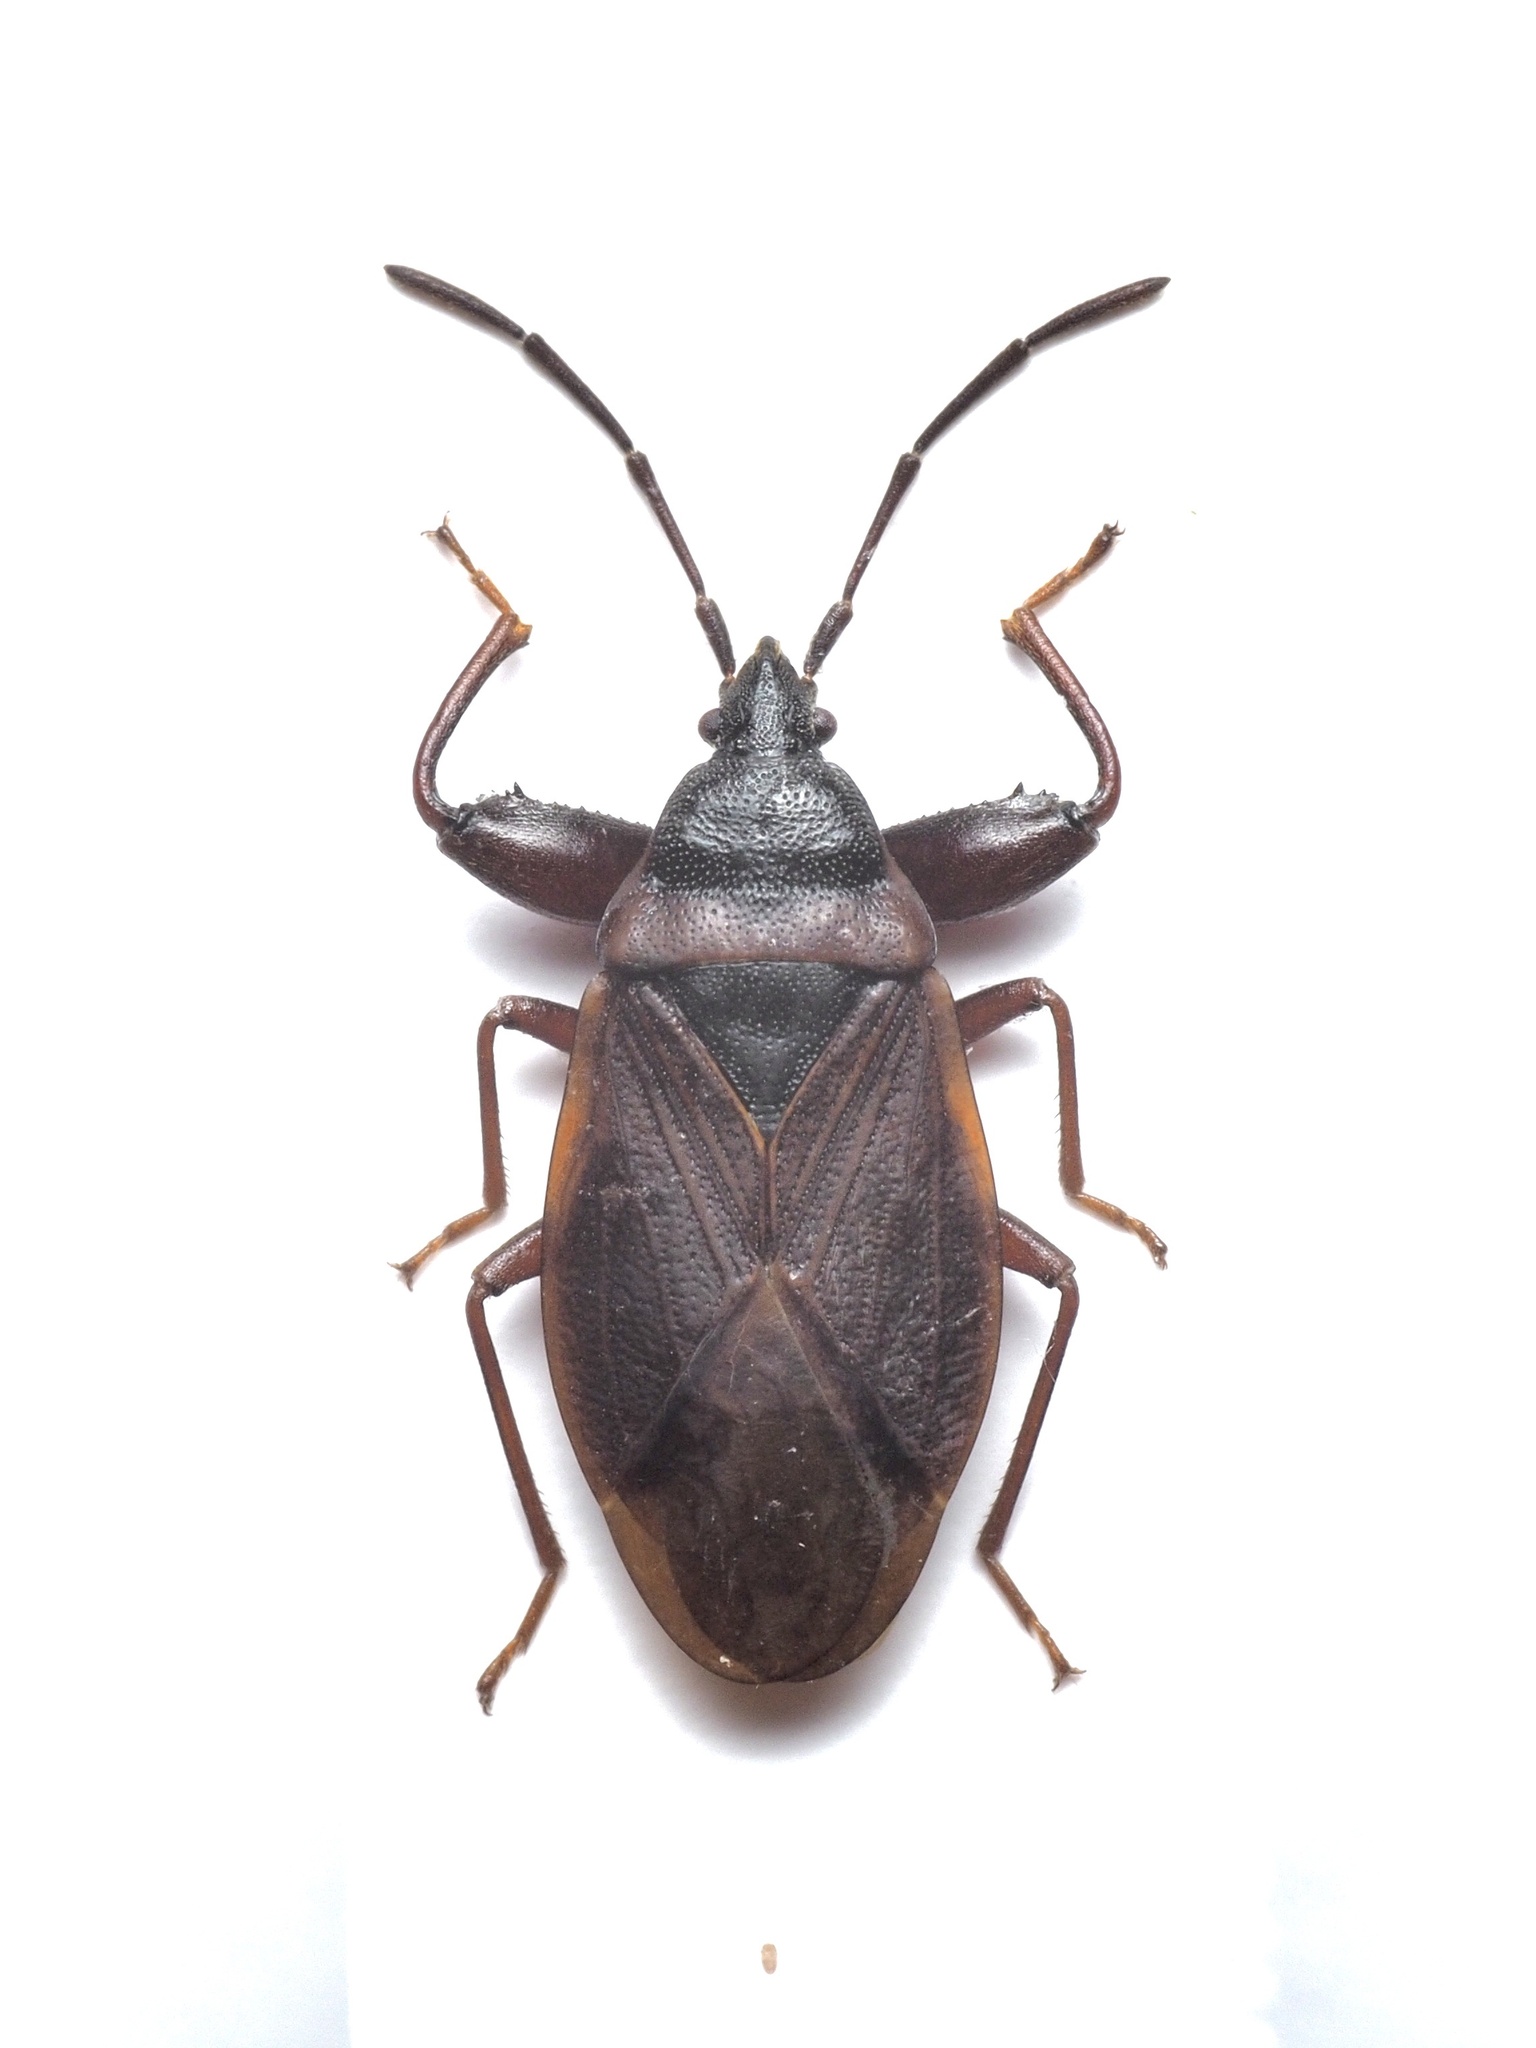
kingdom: Animalia
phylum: Arthropoda
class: Insecta
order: Hemiptera
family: Rhyparochromidae
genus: Gastrodes
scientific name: Gastrodes grossipes
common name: Pine cone bug
